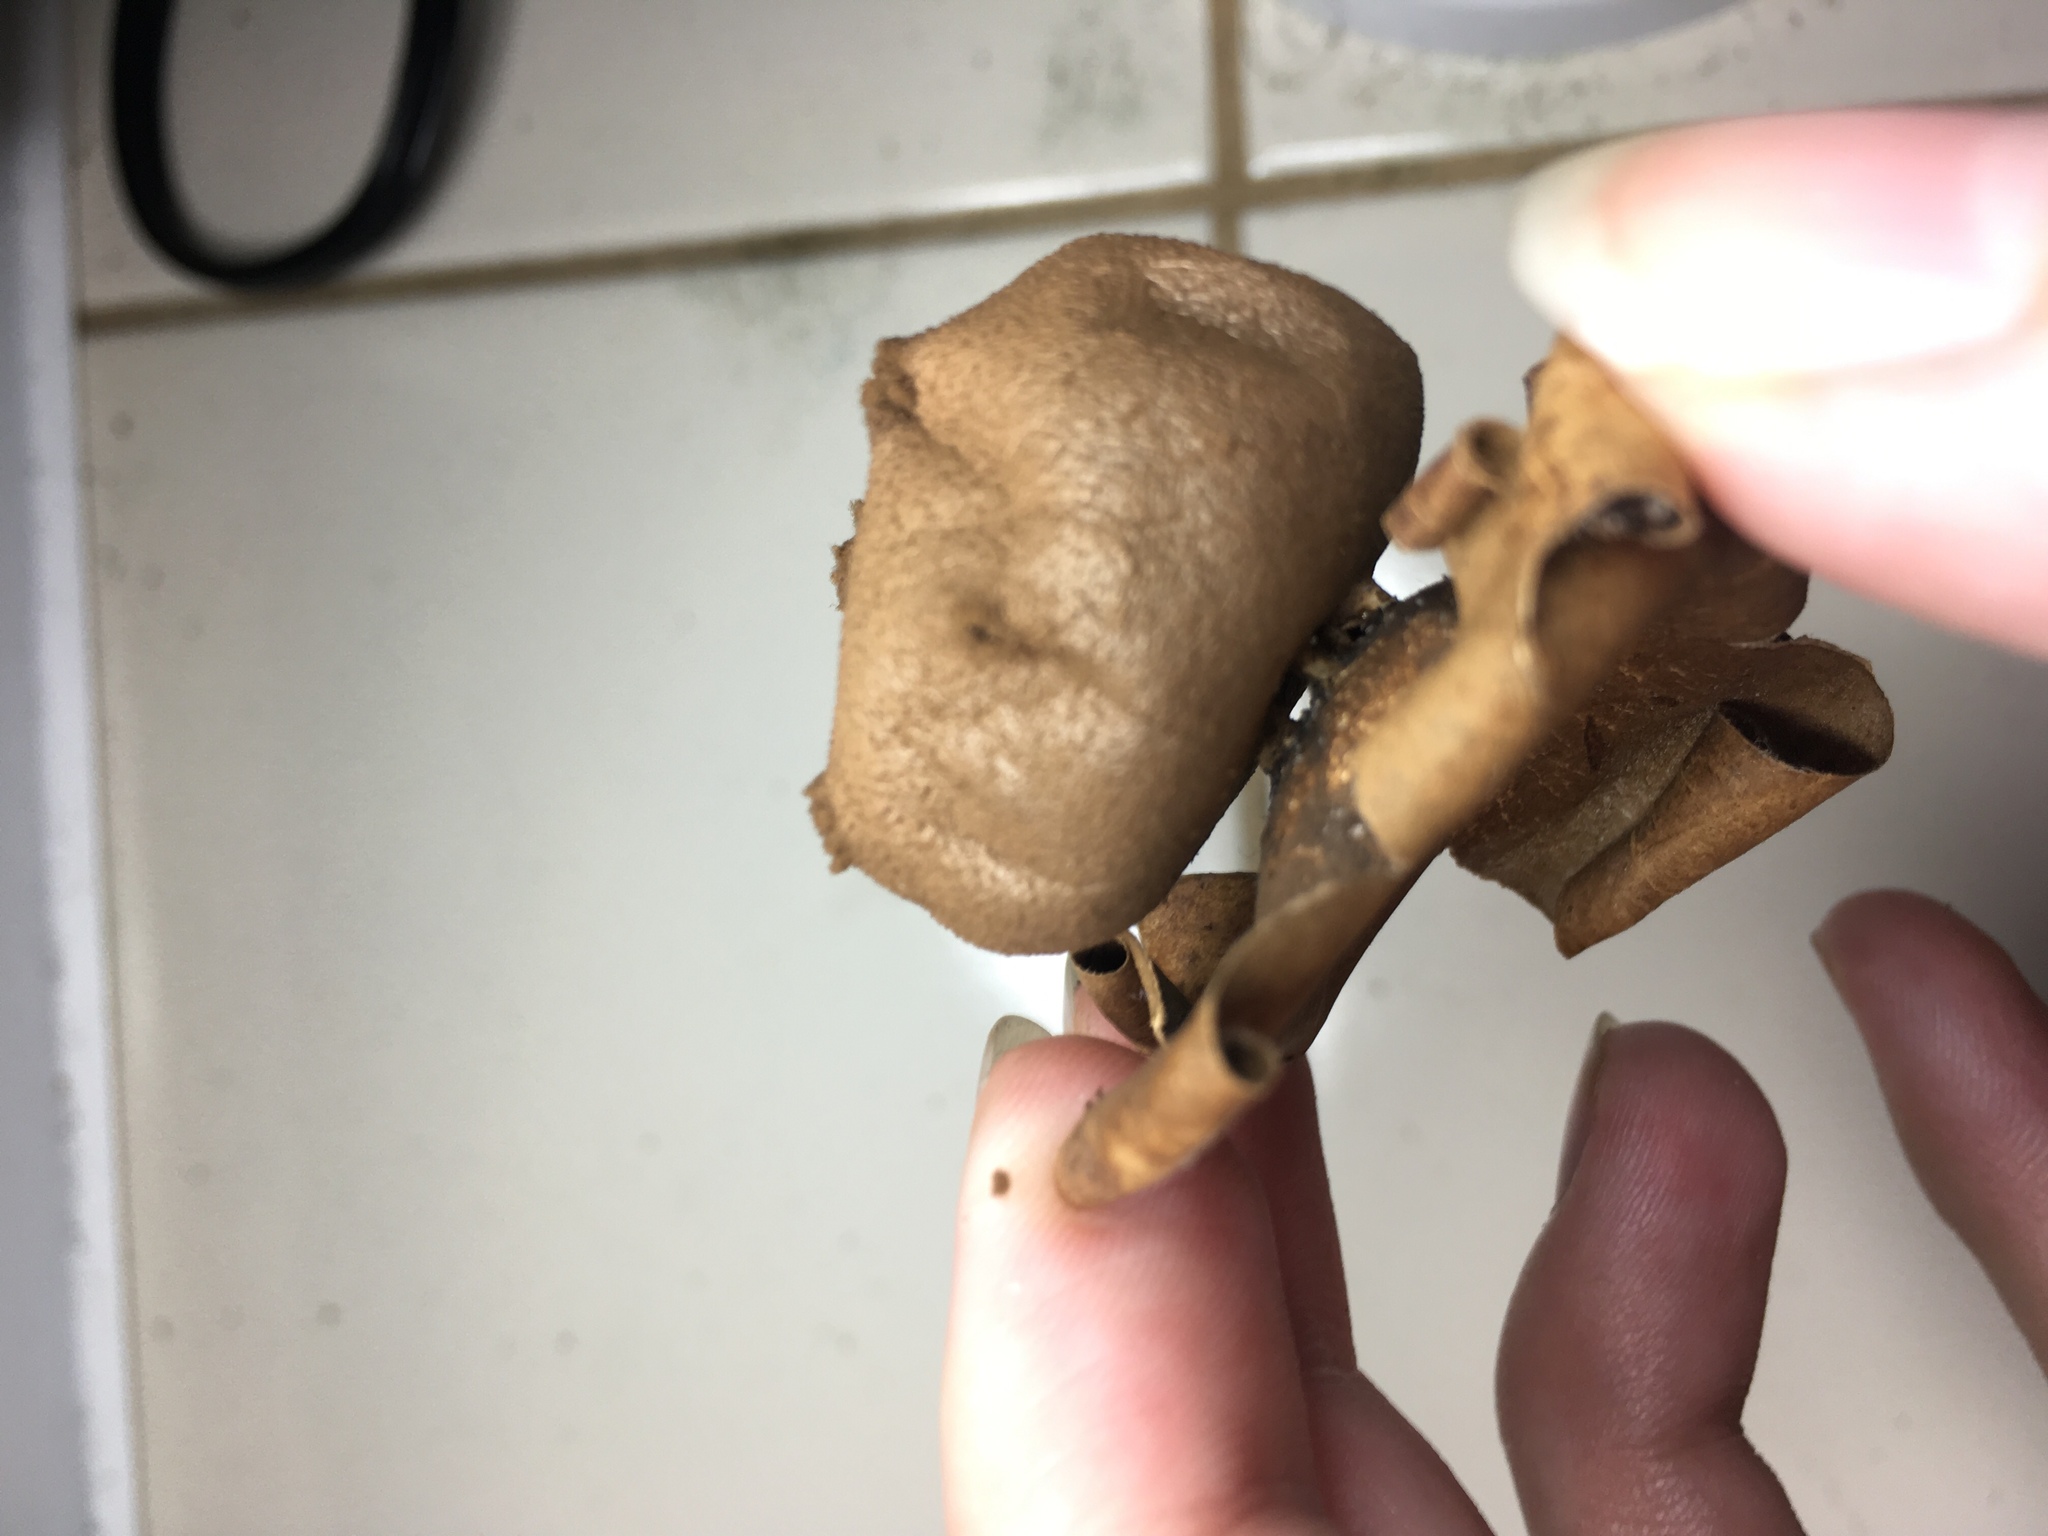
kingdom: Fungi
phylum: Basidiomycota
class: Agaricomycetes
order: Geastrales
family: Geastraceae
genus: Myriostoma
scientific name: Myriostoma coliforme
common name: Pepper pot
